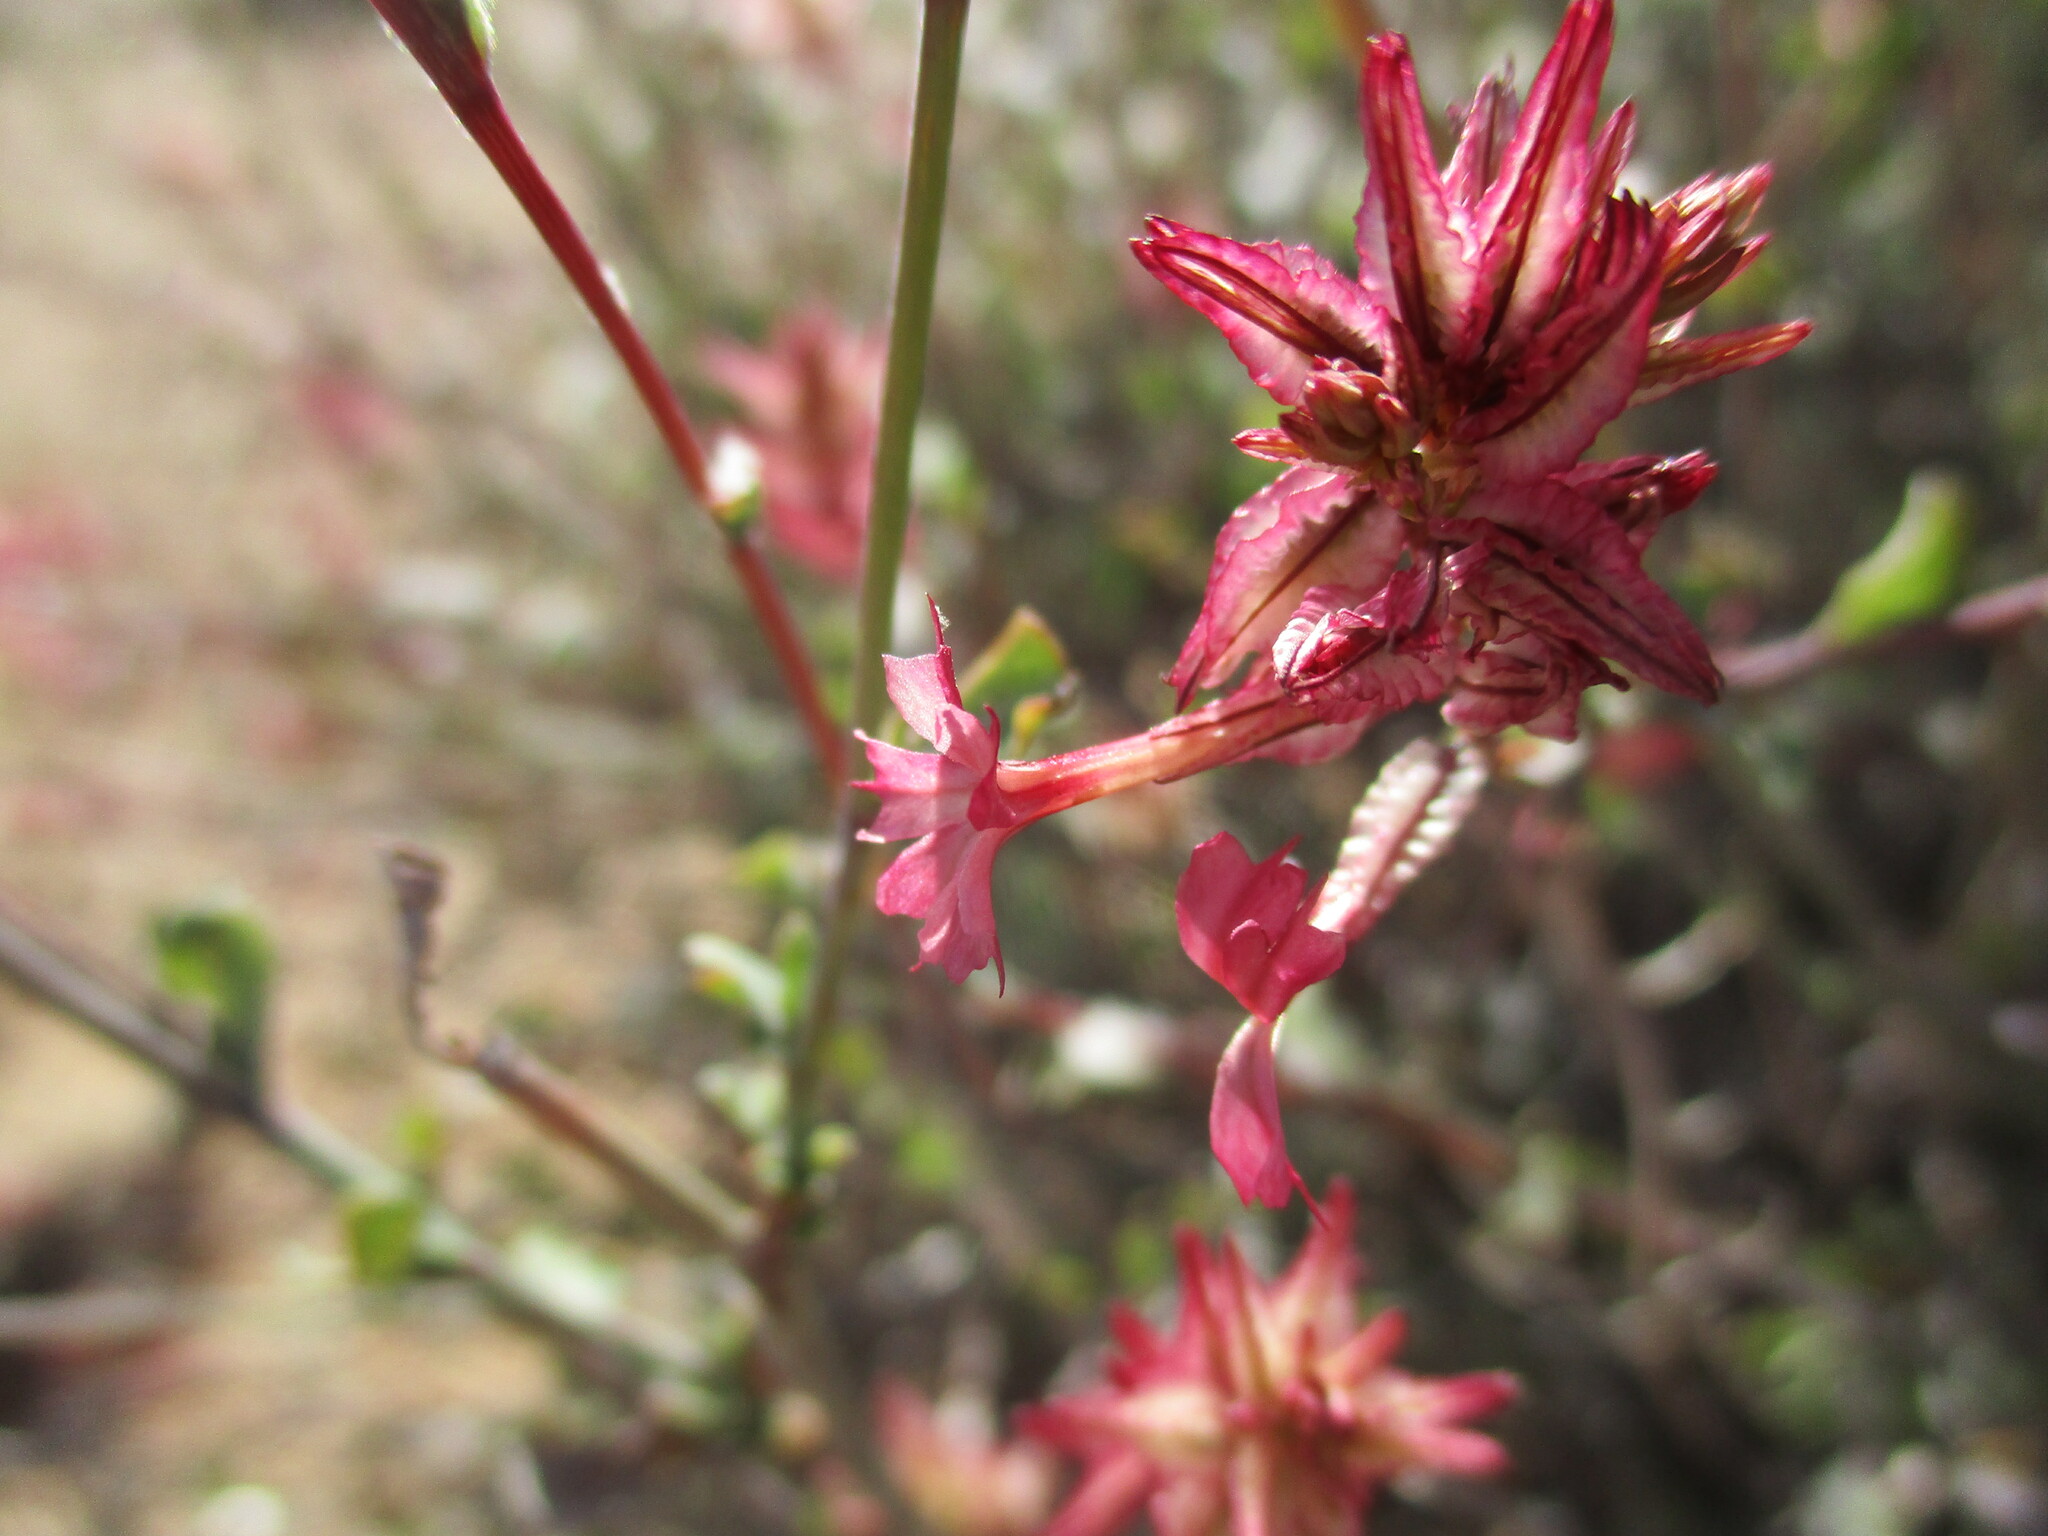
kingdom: Plantae
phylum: Tracheophyta
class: Magnoliopsida
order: Caryophyllales
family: Plumbaginaceae
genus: Dyerophytum
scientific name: Dyerophytum africanum
